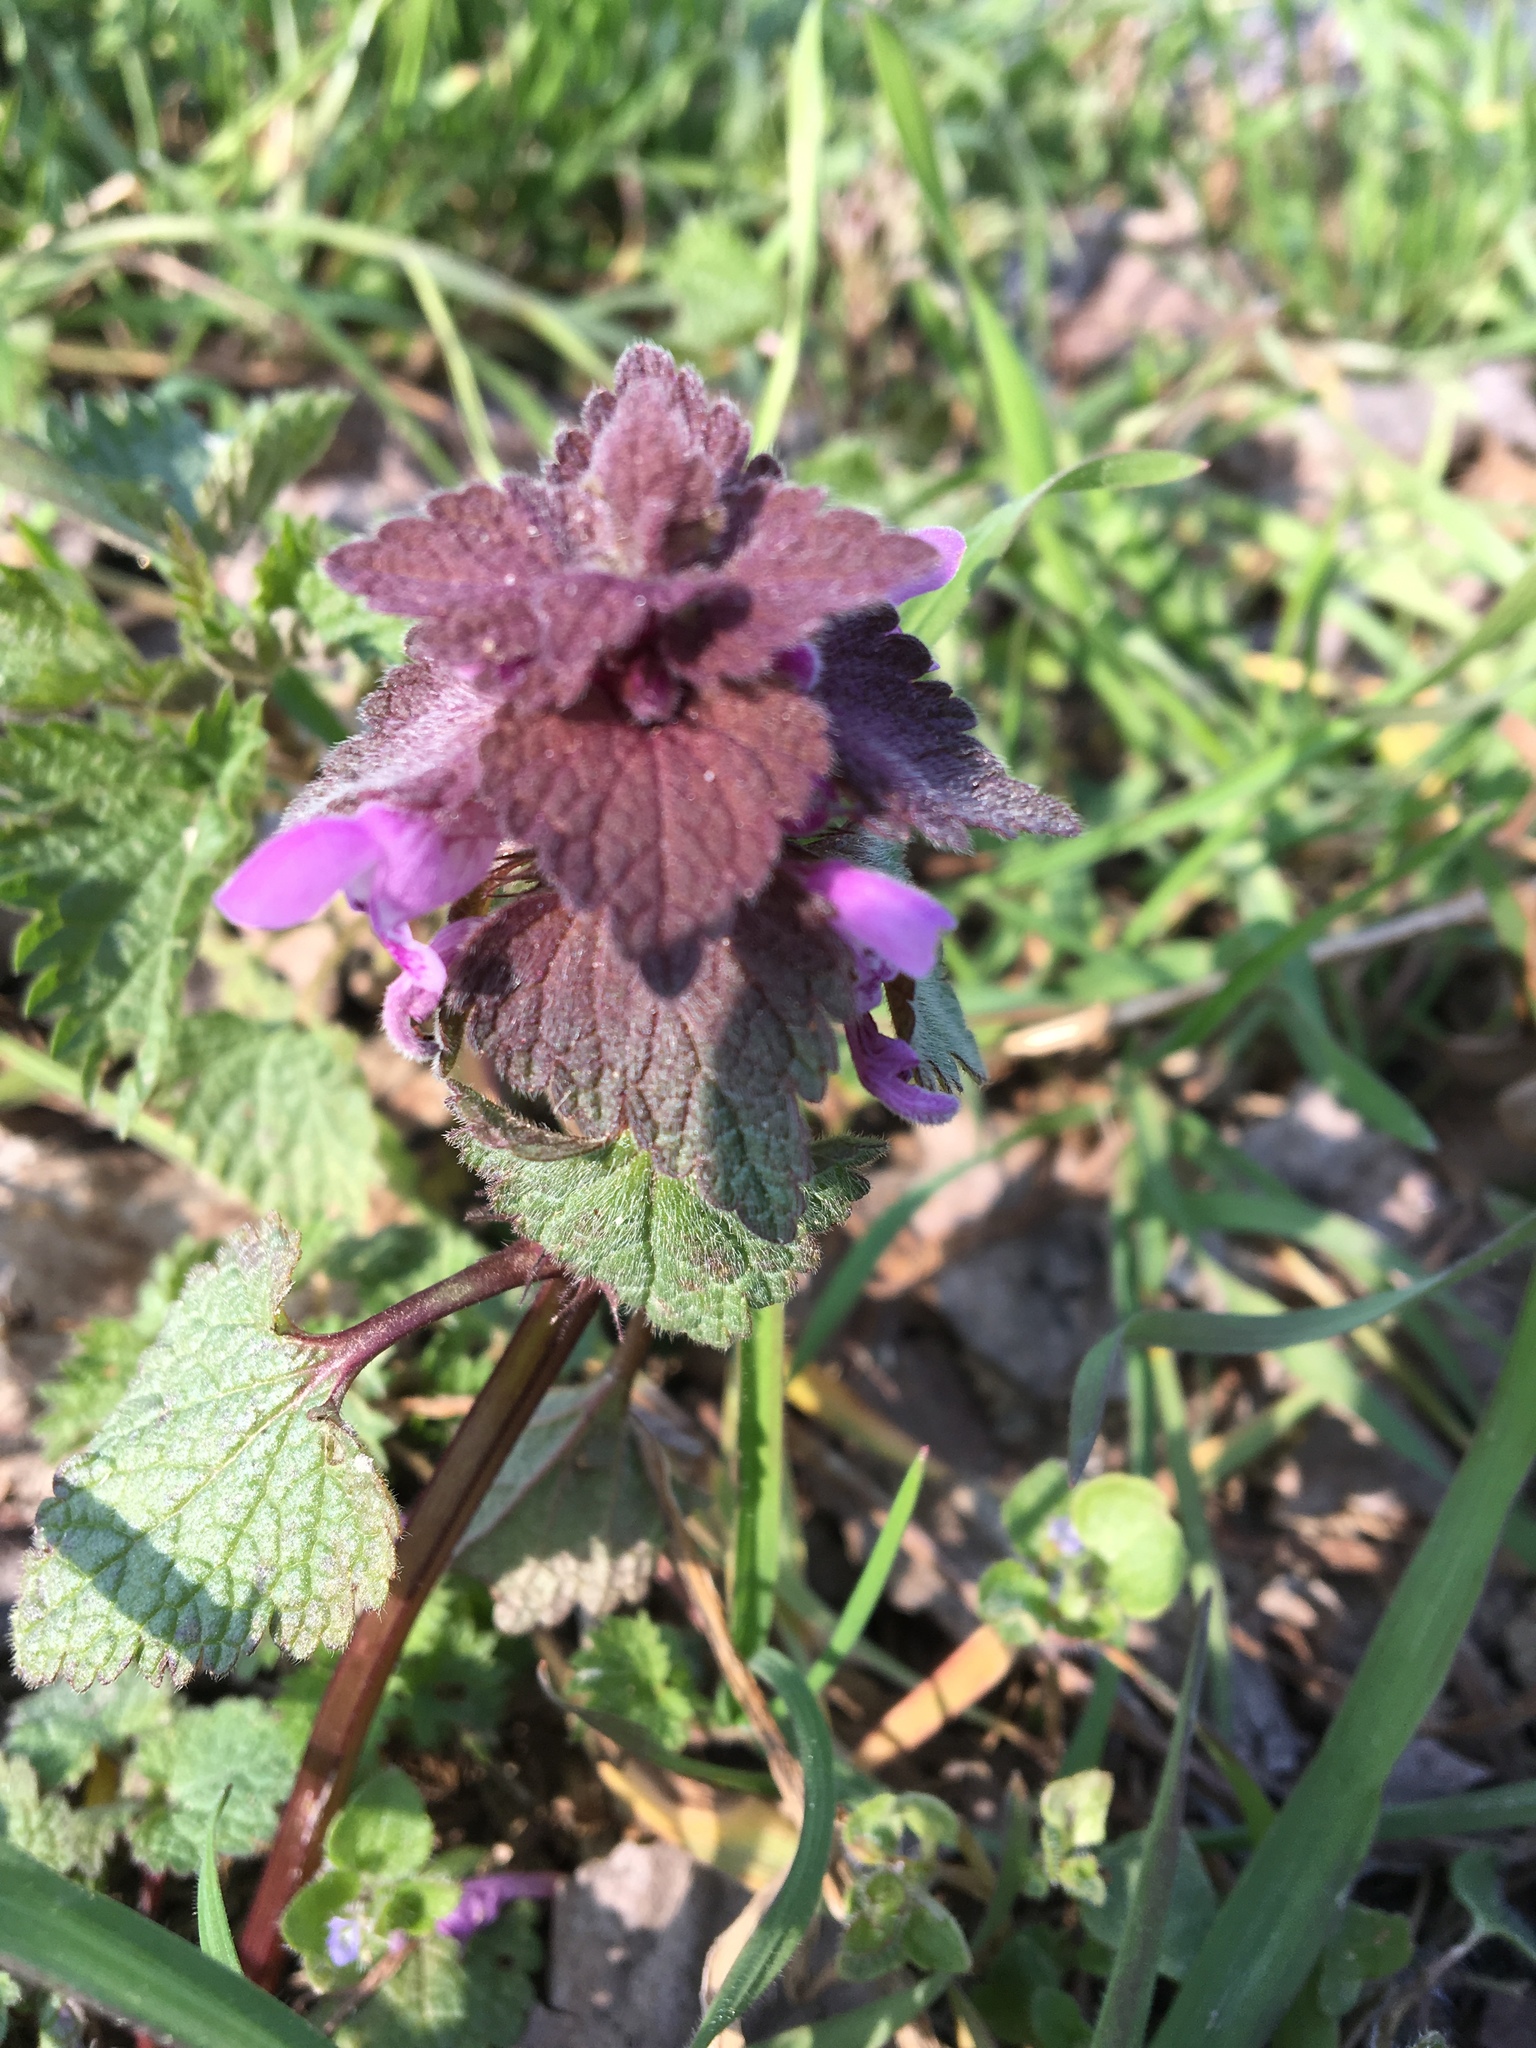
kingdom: Plantae
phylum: Tracheophyta
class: Magnoliopsida
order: Lamiales
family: Lamiaceae
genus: Lamium
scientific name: Lamium purpureum
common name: Red dead-nettle
